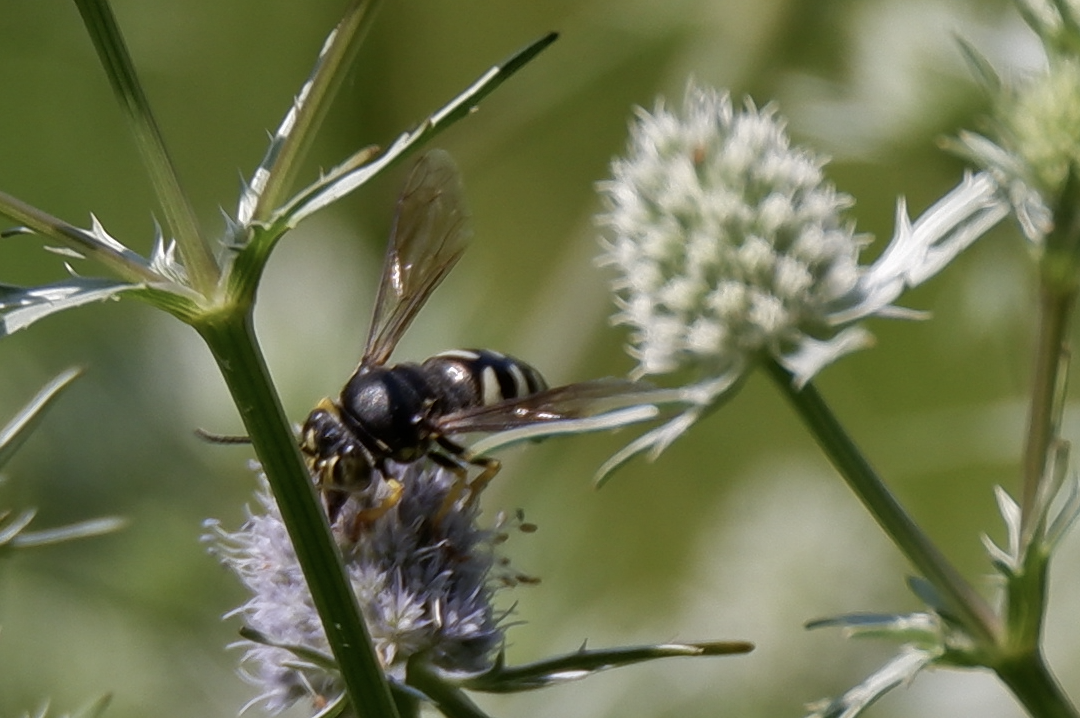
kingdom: Animalia
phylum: Arthropoda
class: Insecta
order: Hymenoptera
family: Crabronidae
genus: Bicyrtes
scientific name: Bicyrtes quadrifasciatus
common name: Four-banded stink bug hunter wasp
